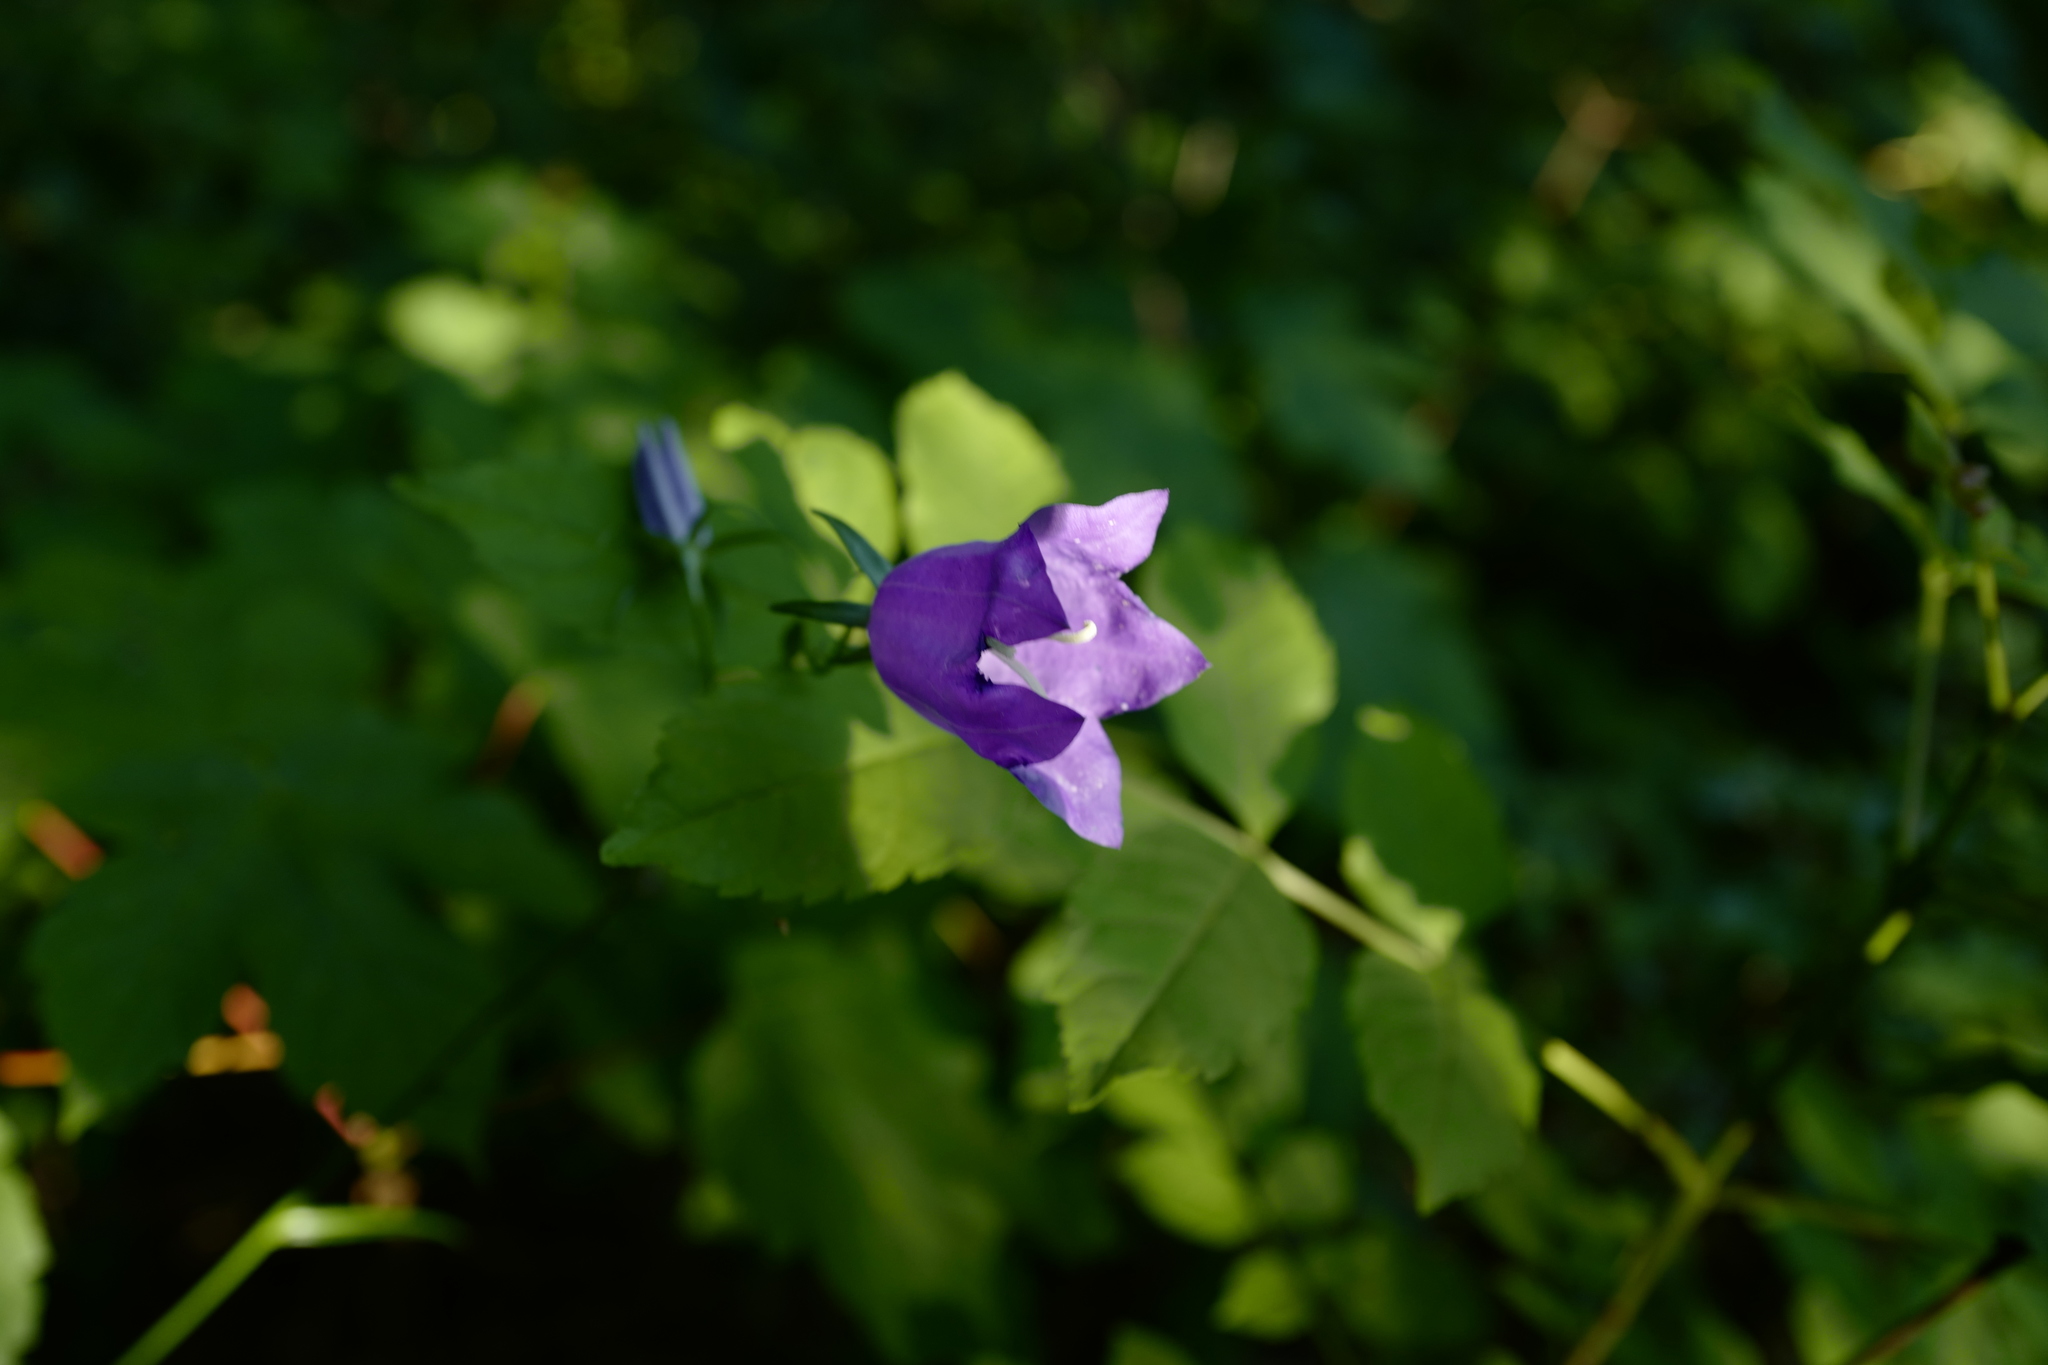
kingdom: Plantae
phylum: Tracheophyta
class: Magnoliopsida
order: Asterales
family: Campanulaceae
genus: Campanula
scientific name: Campanula persicifolia
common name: Peach-leaved bellflower
